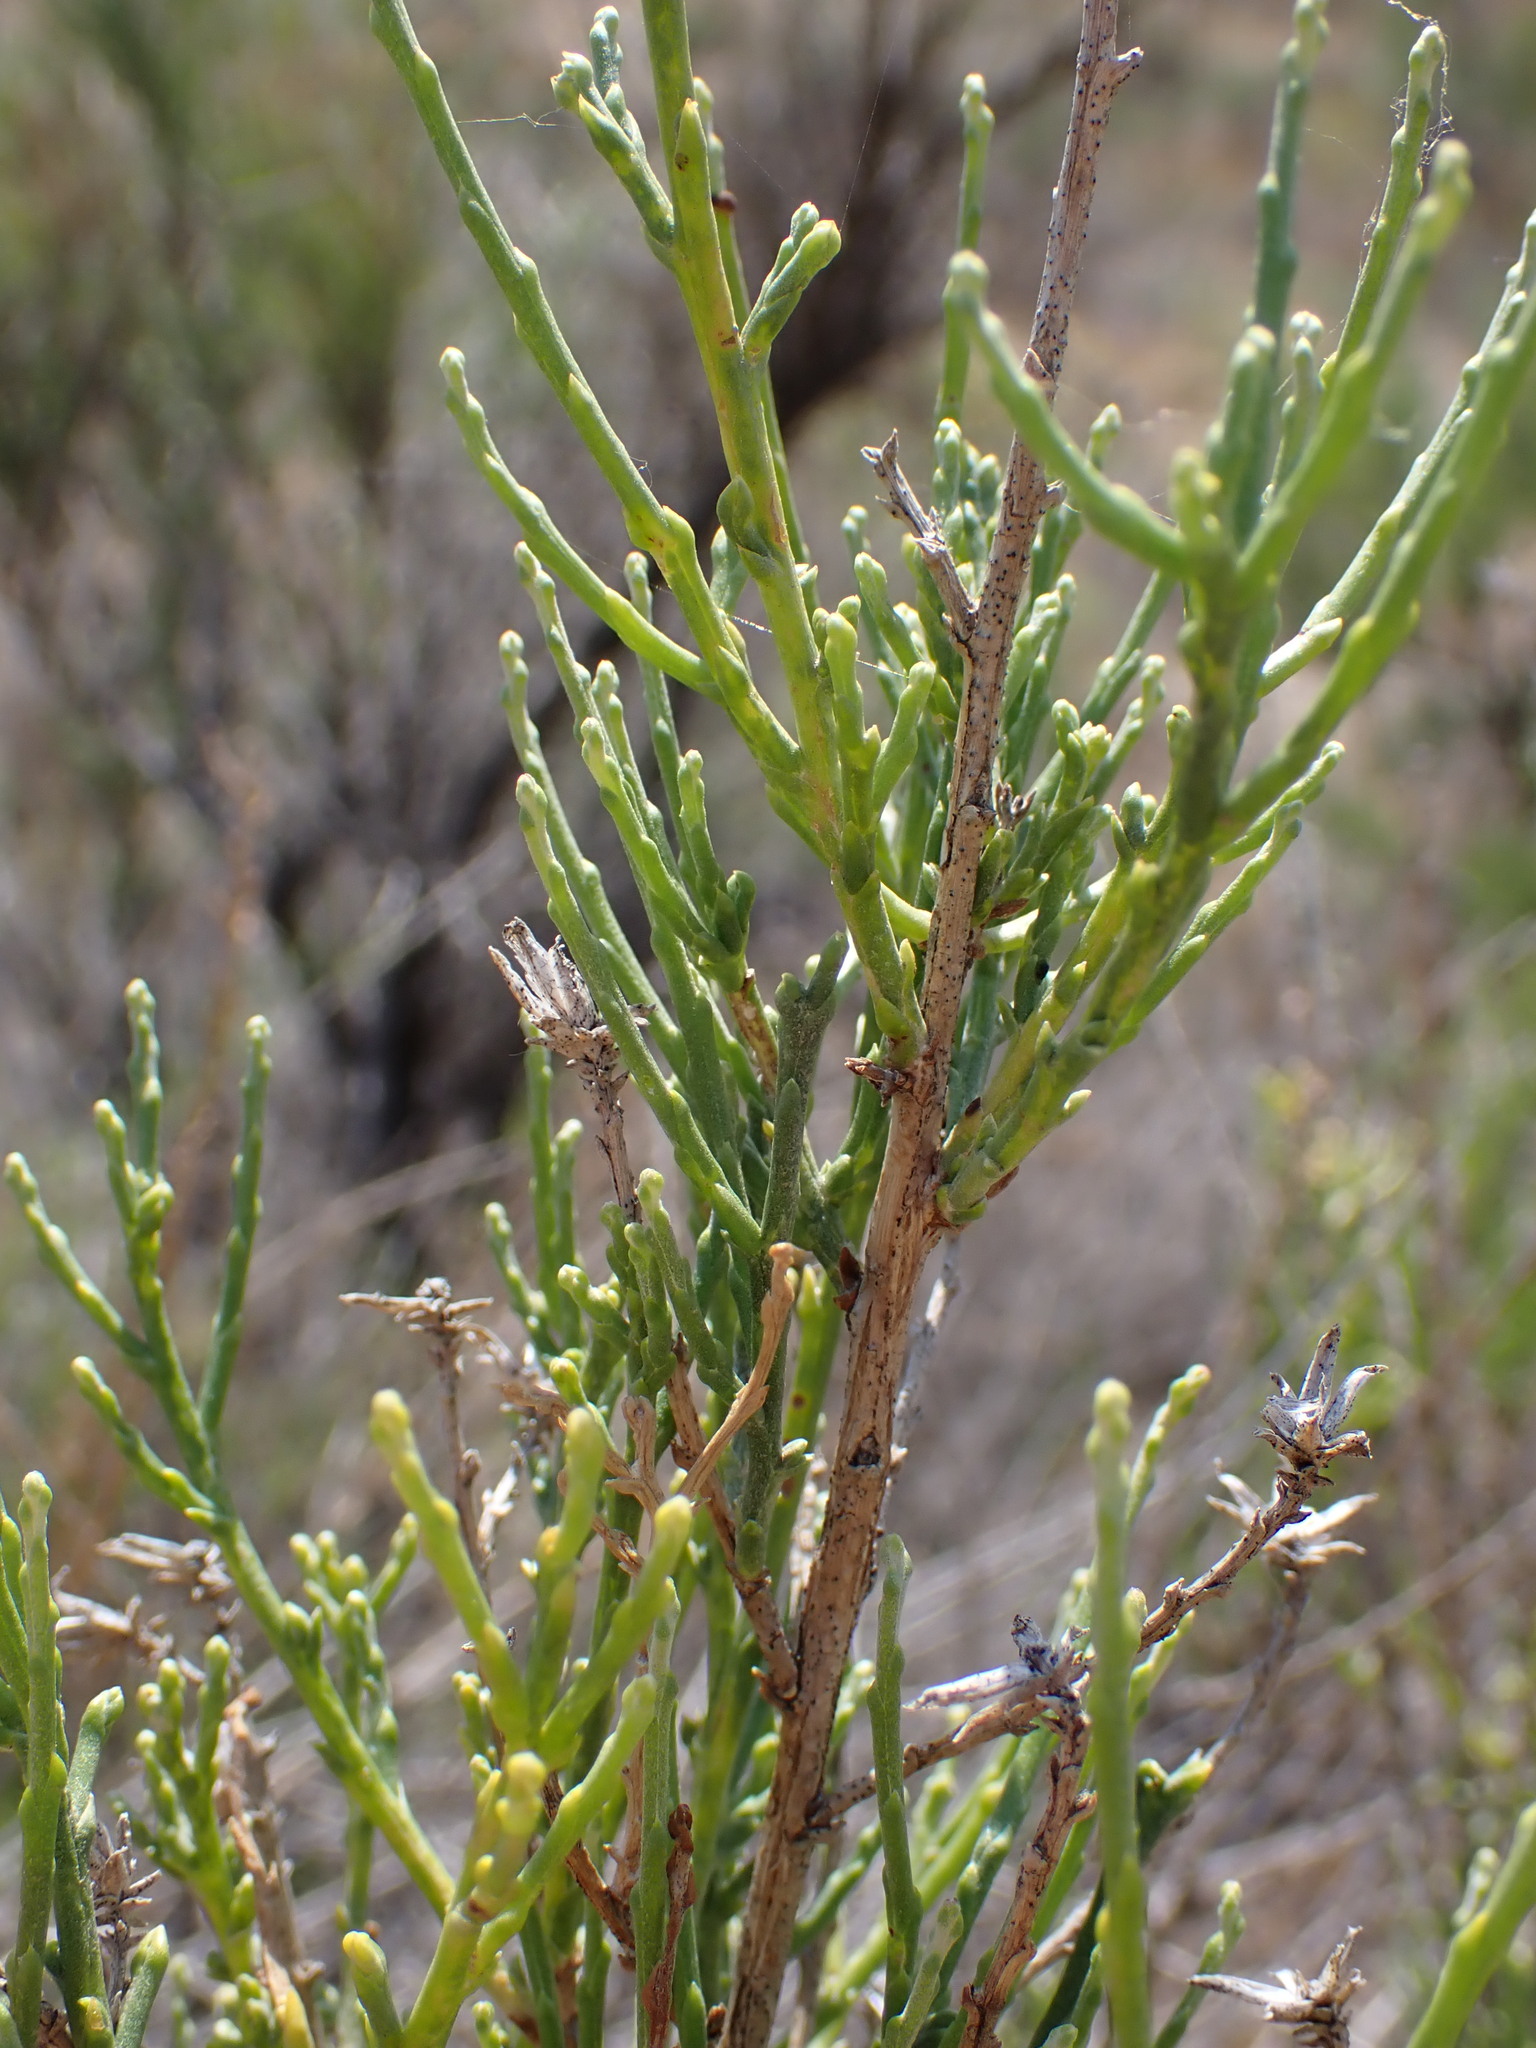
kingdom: Plantae
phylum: Tracheophyta
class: Magnoliopsida
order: Asterales
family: Asteraceae
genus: Lepidospartum
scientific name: Lepidospartum squamatum
